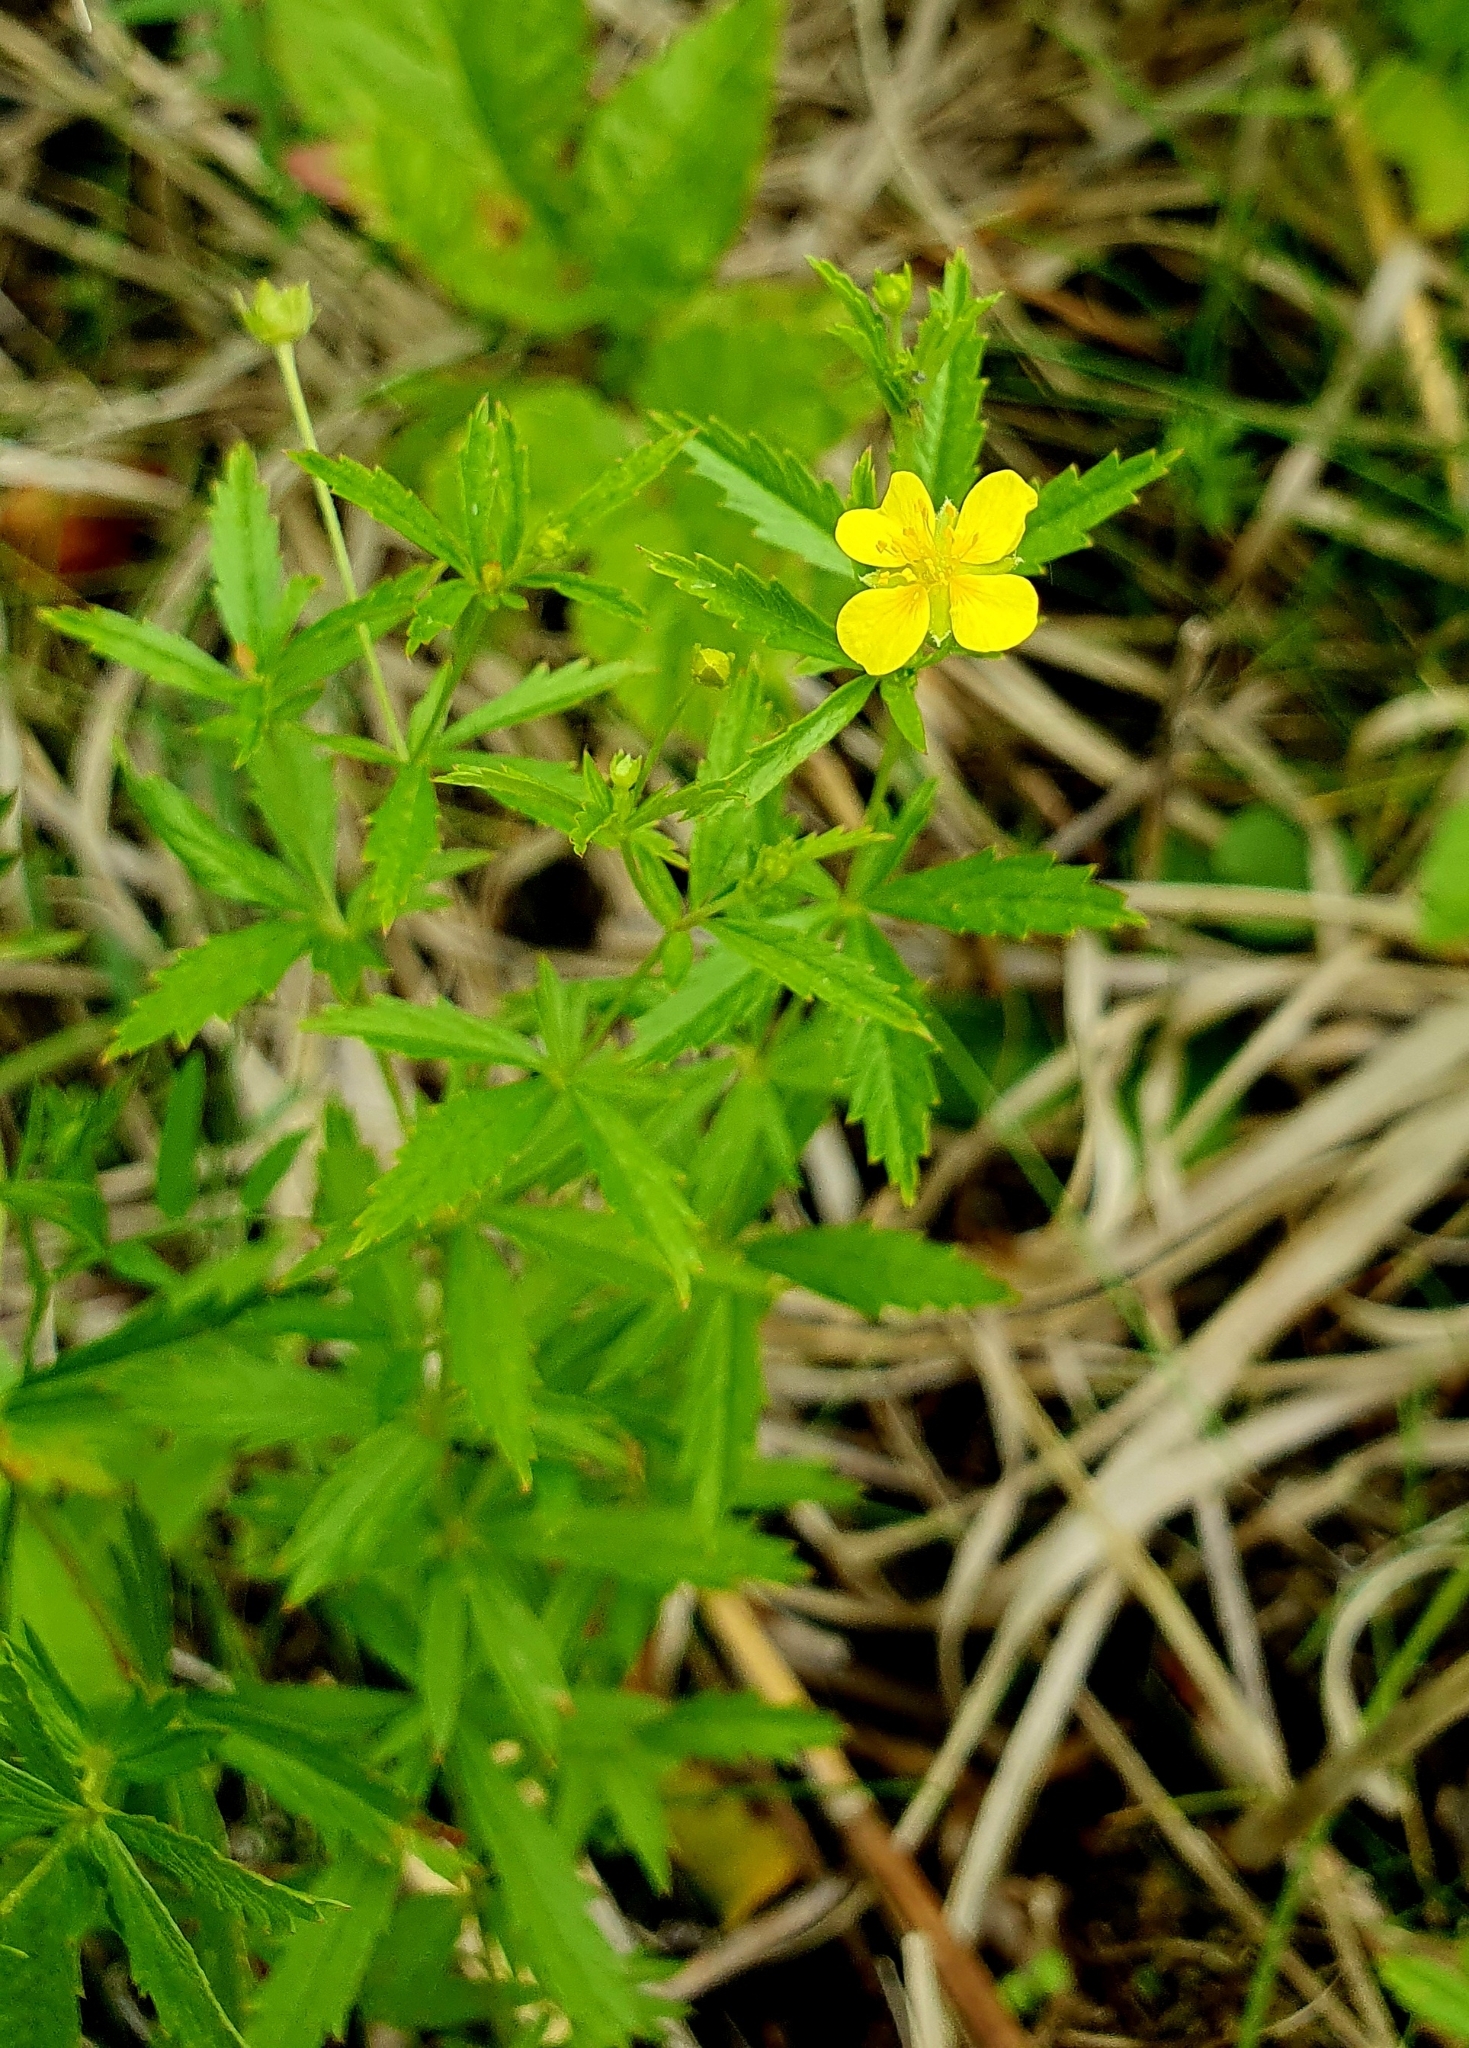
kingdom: Plantae
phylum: Tracheophyta
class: Magnoliopsida
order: Rosales
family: Rosaceae
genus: Potentilla
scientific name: Potentilla erecta
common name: Tormentil
